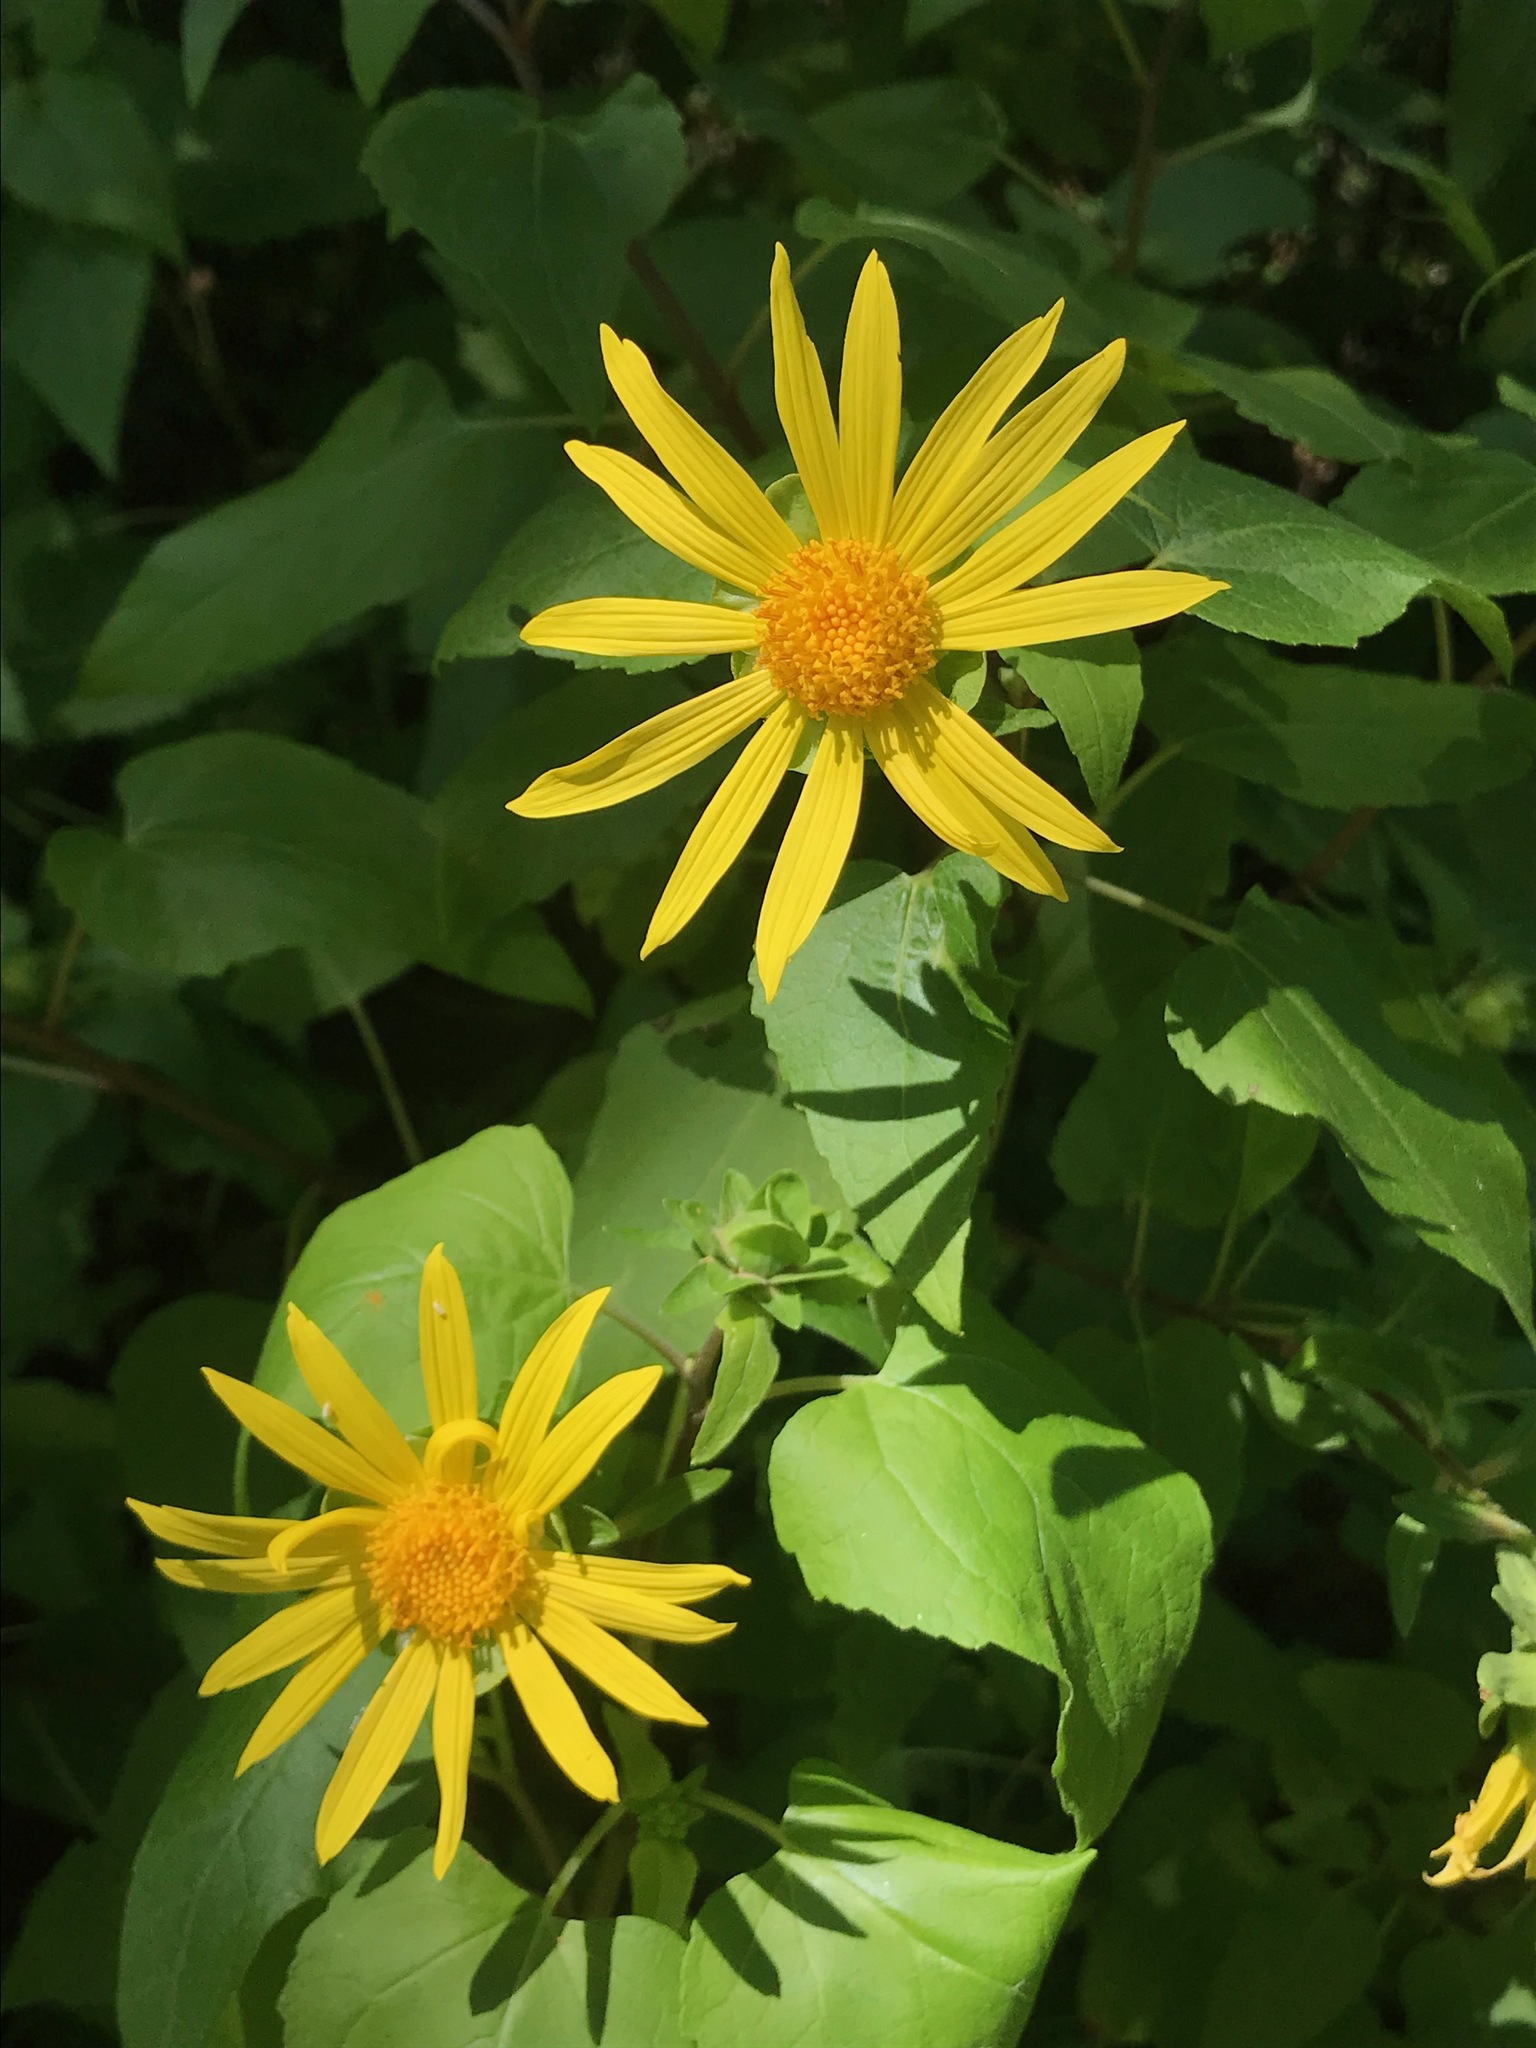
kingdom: Plantae
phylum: Tracheophyta
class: Magnoliopsida
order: Asterales
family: Asteraceae
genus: Venegasia
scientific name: Venegasia carpesioides
